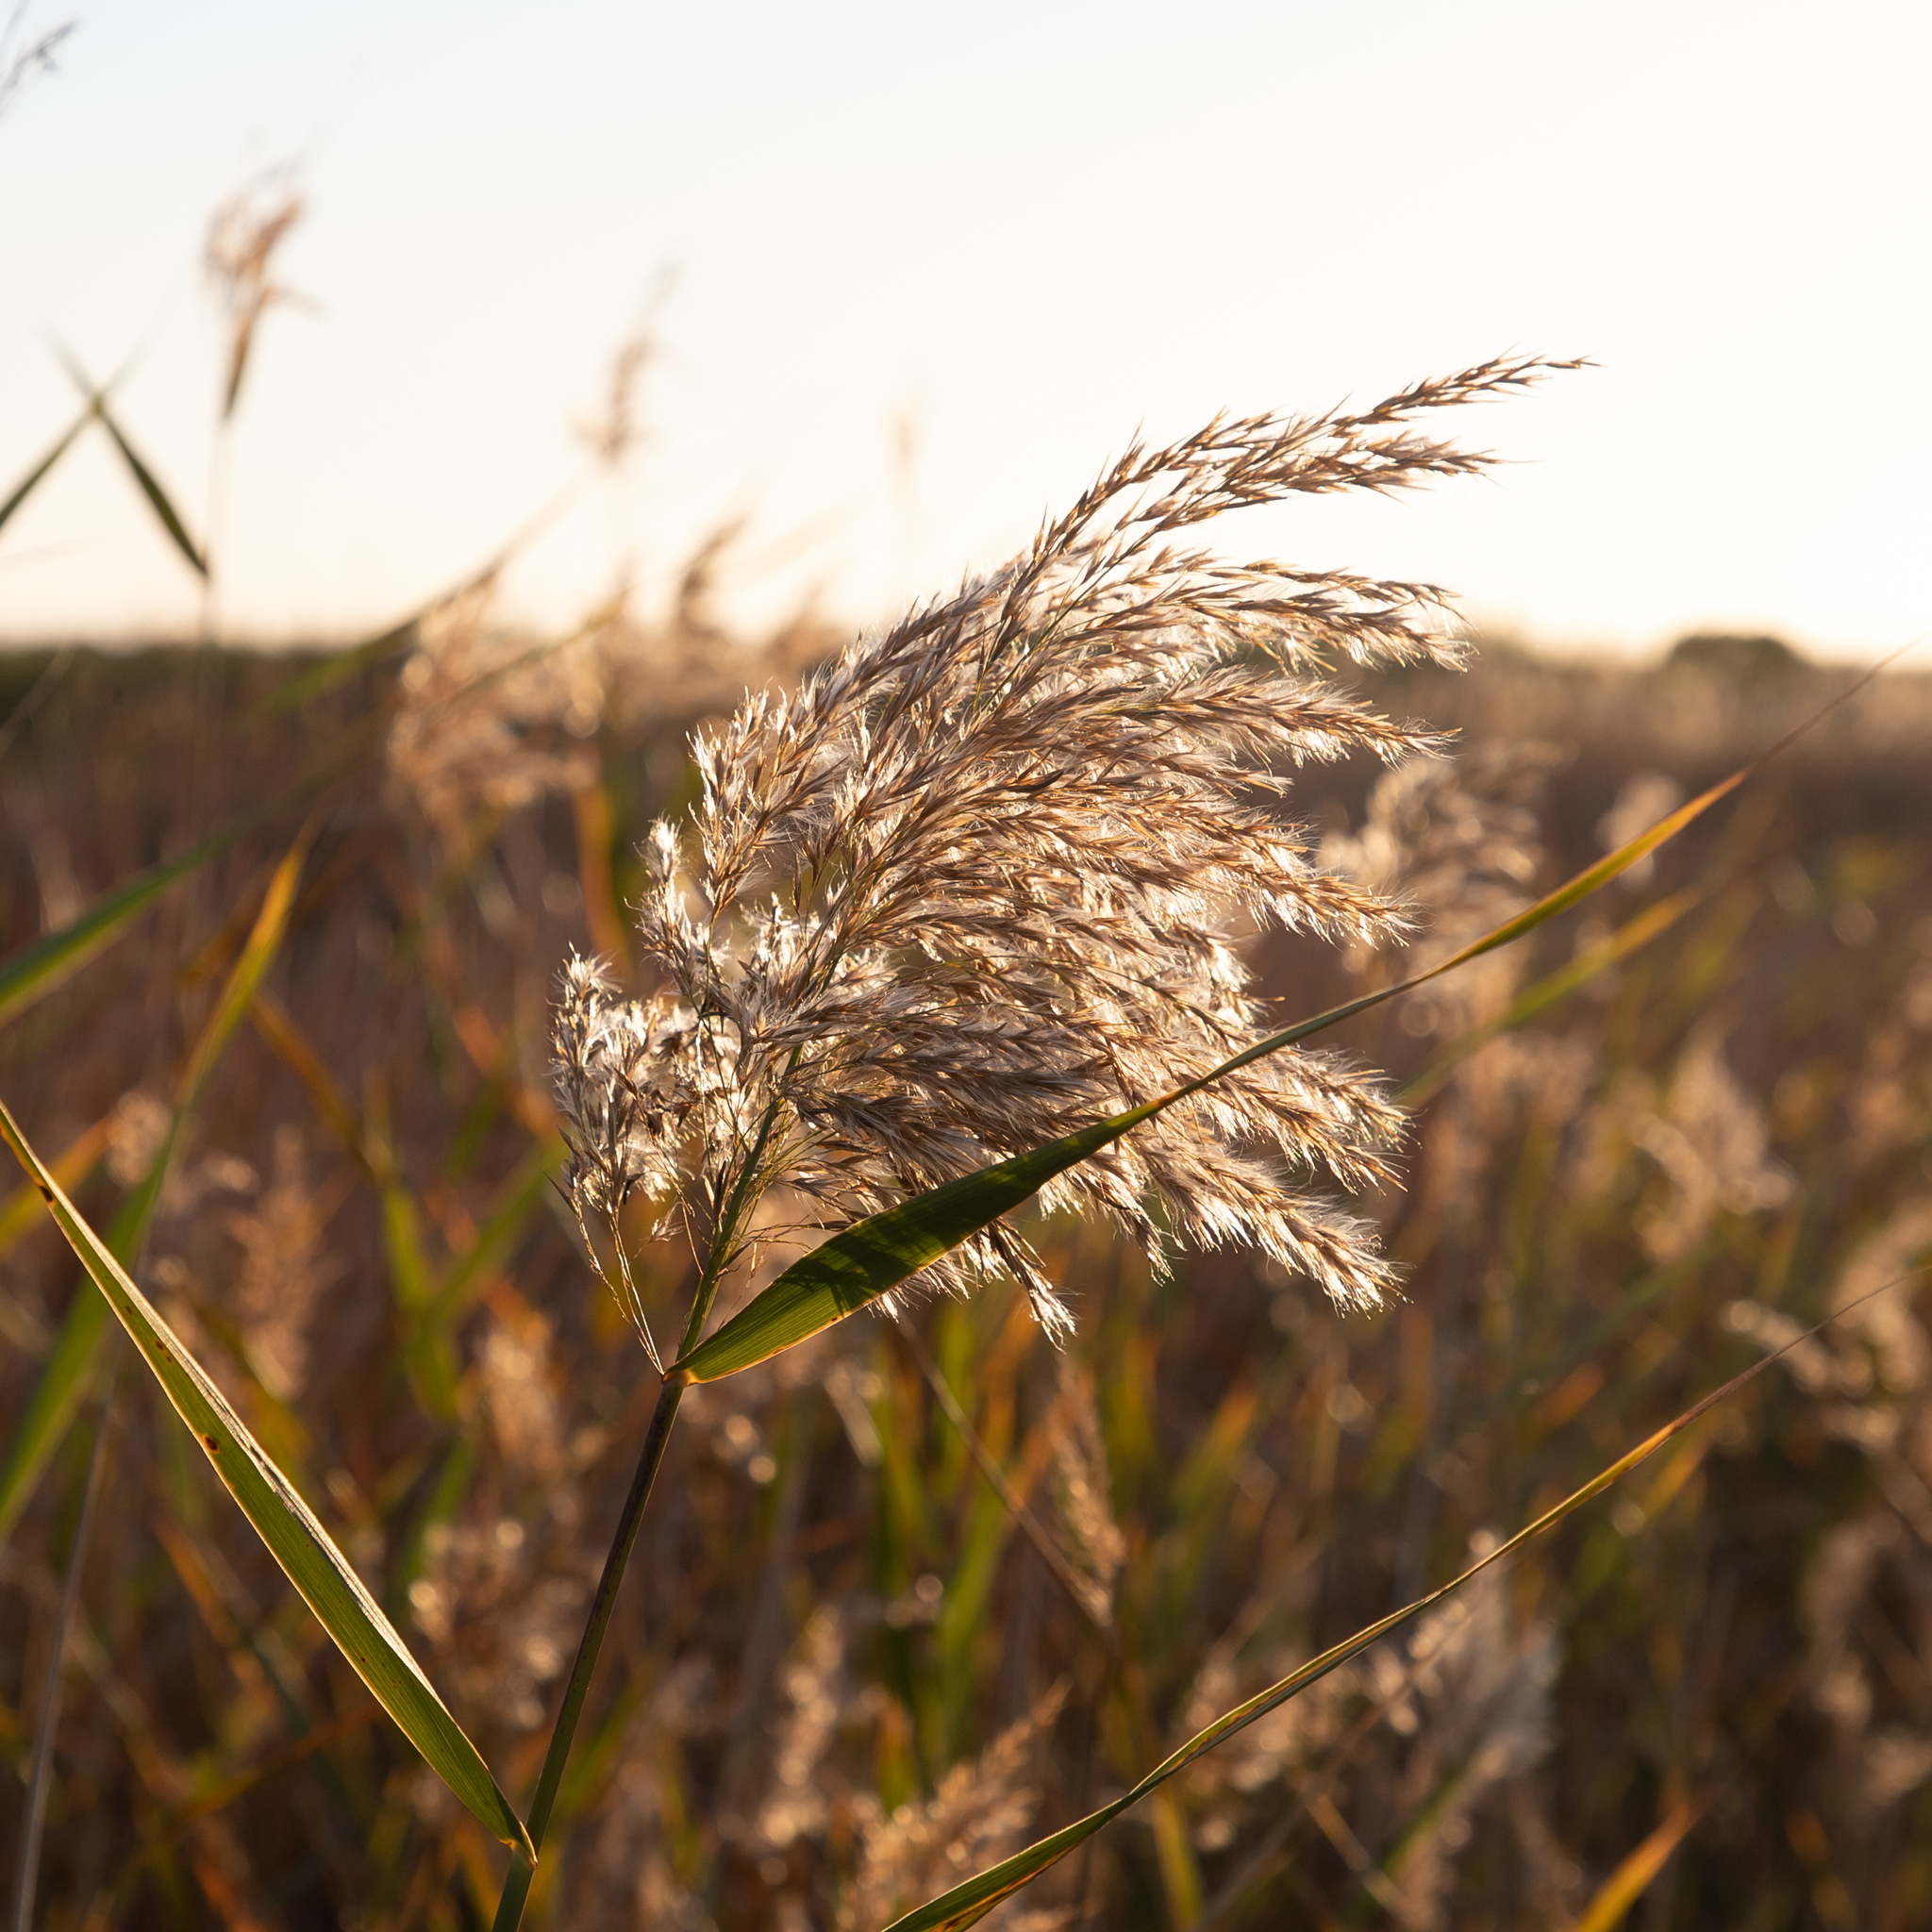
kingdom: Plantae
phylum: Tracheophyta
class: Liliopsida
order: Poales
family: Poaceae
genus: Phragmites
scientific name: Phragmites australis
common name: Common reed
